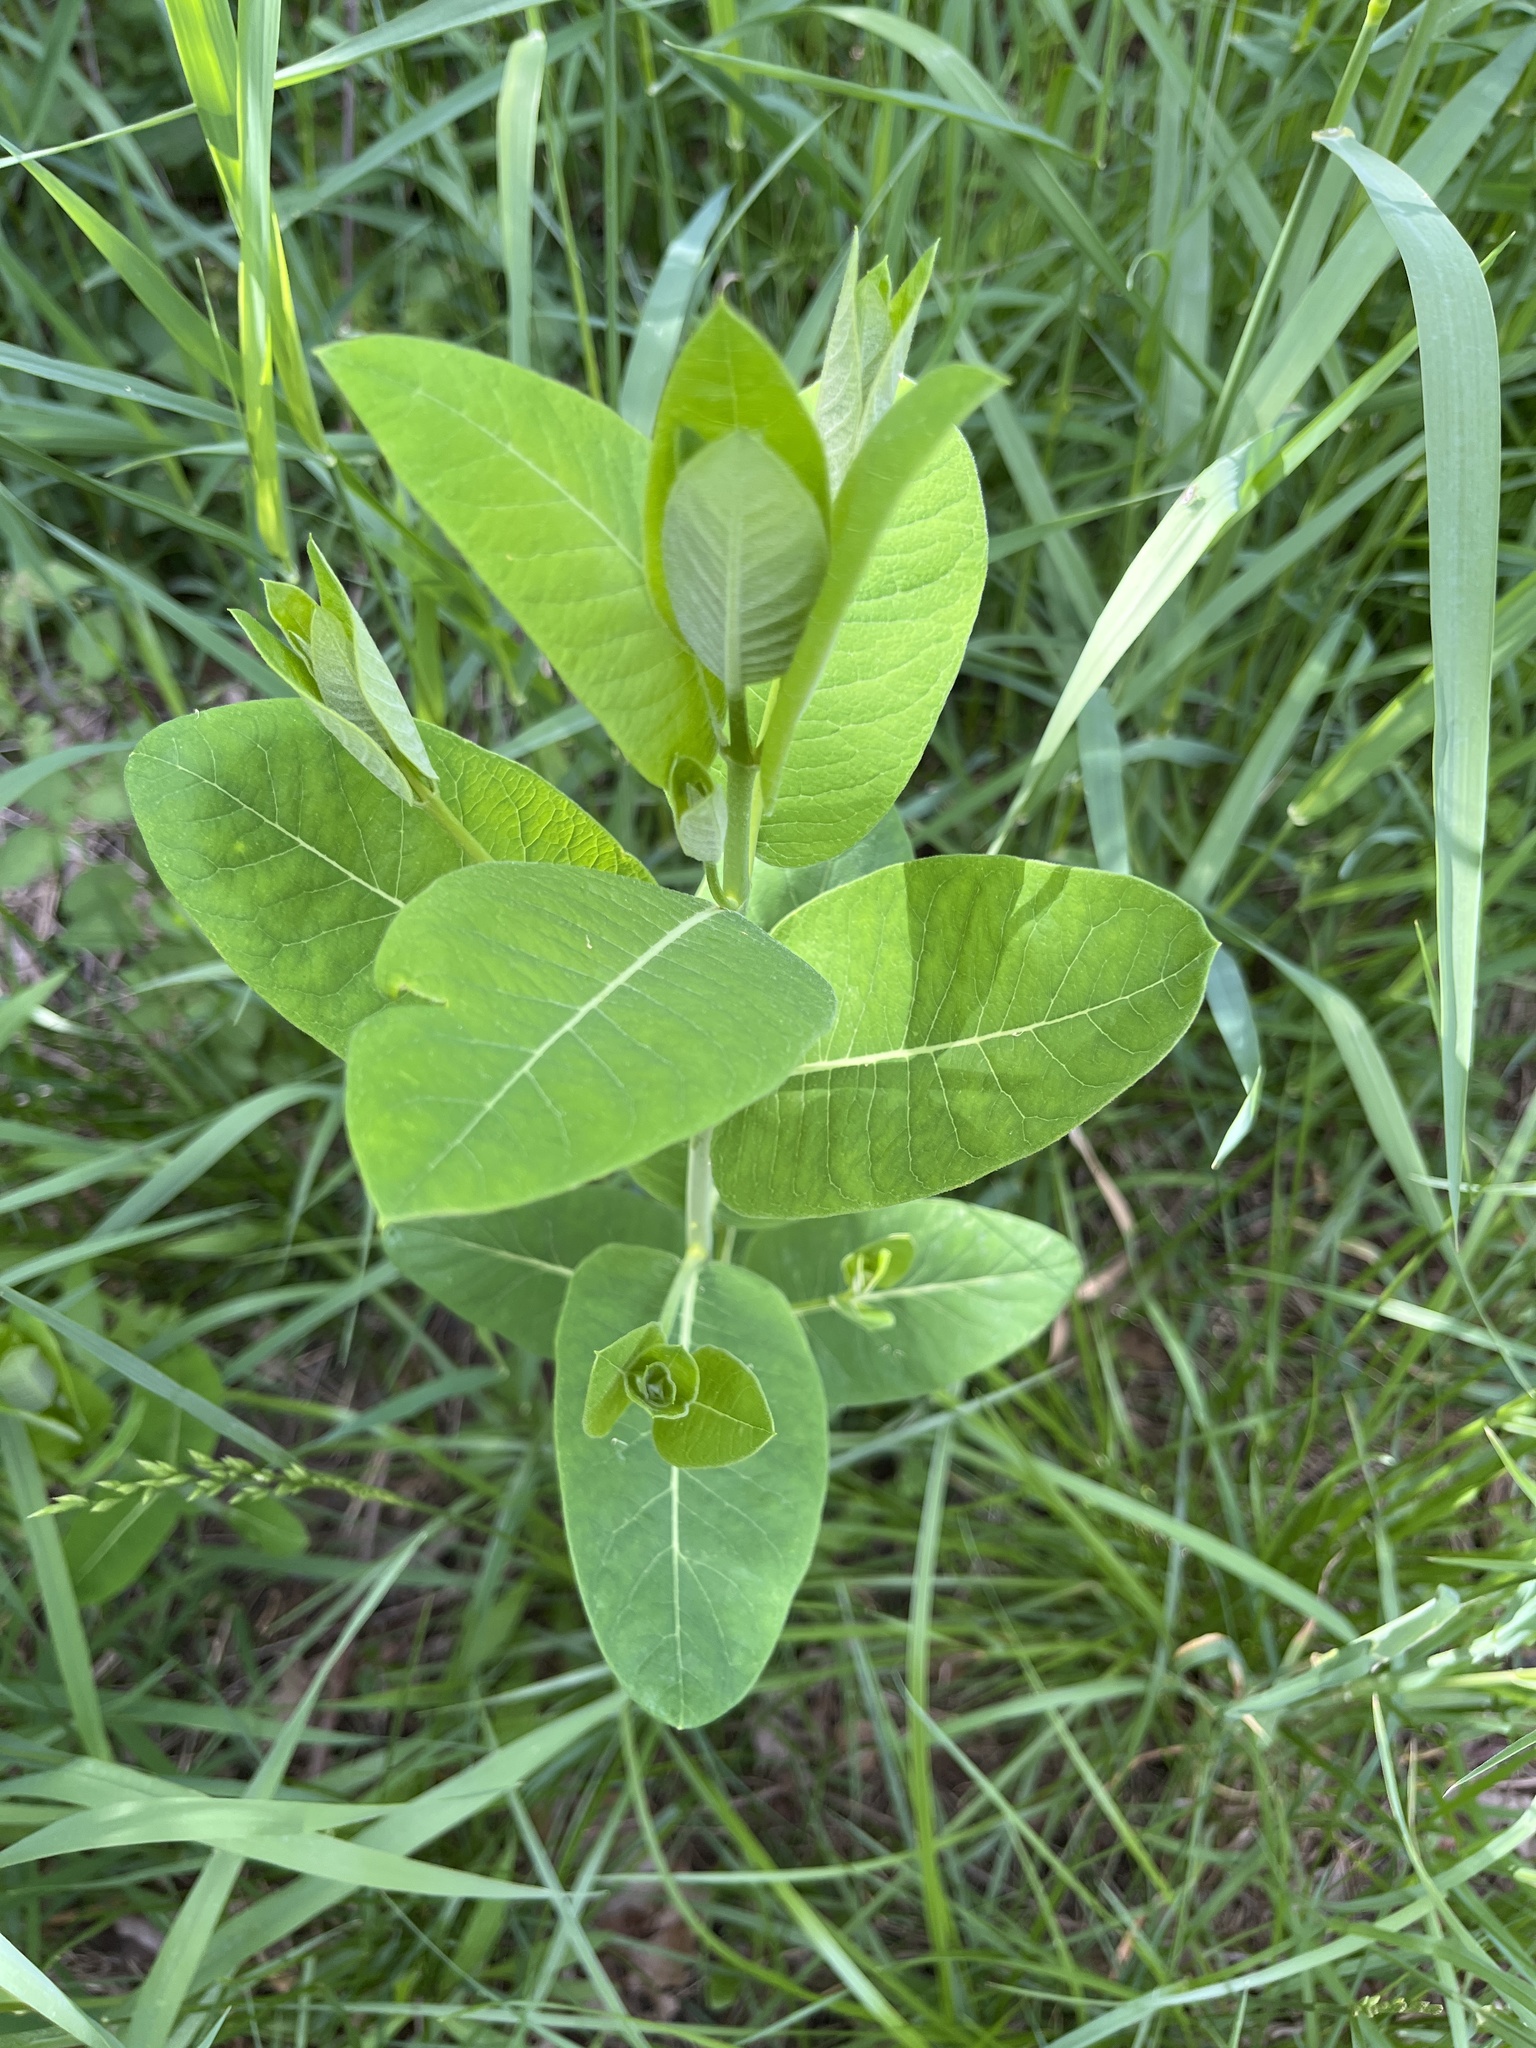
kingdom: Plantae
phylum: Tracheophyta
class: Magnoliopsida
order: Gentianales
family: Apocynaceae
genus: Apocynum
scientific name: Apocynum cannabinum
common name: Hemp dogbane
